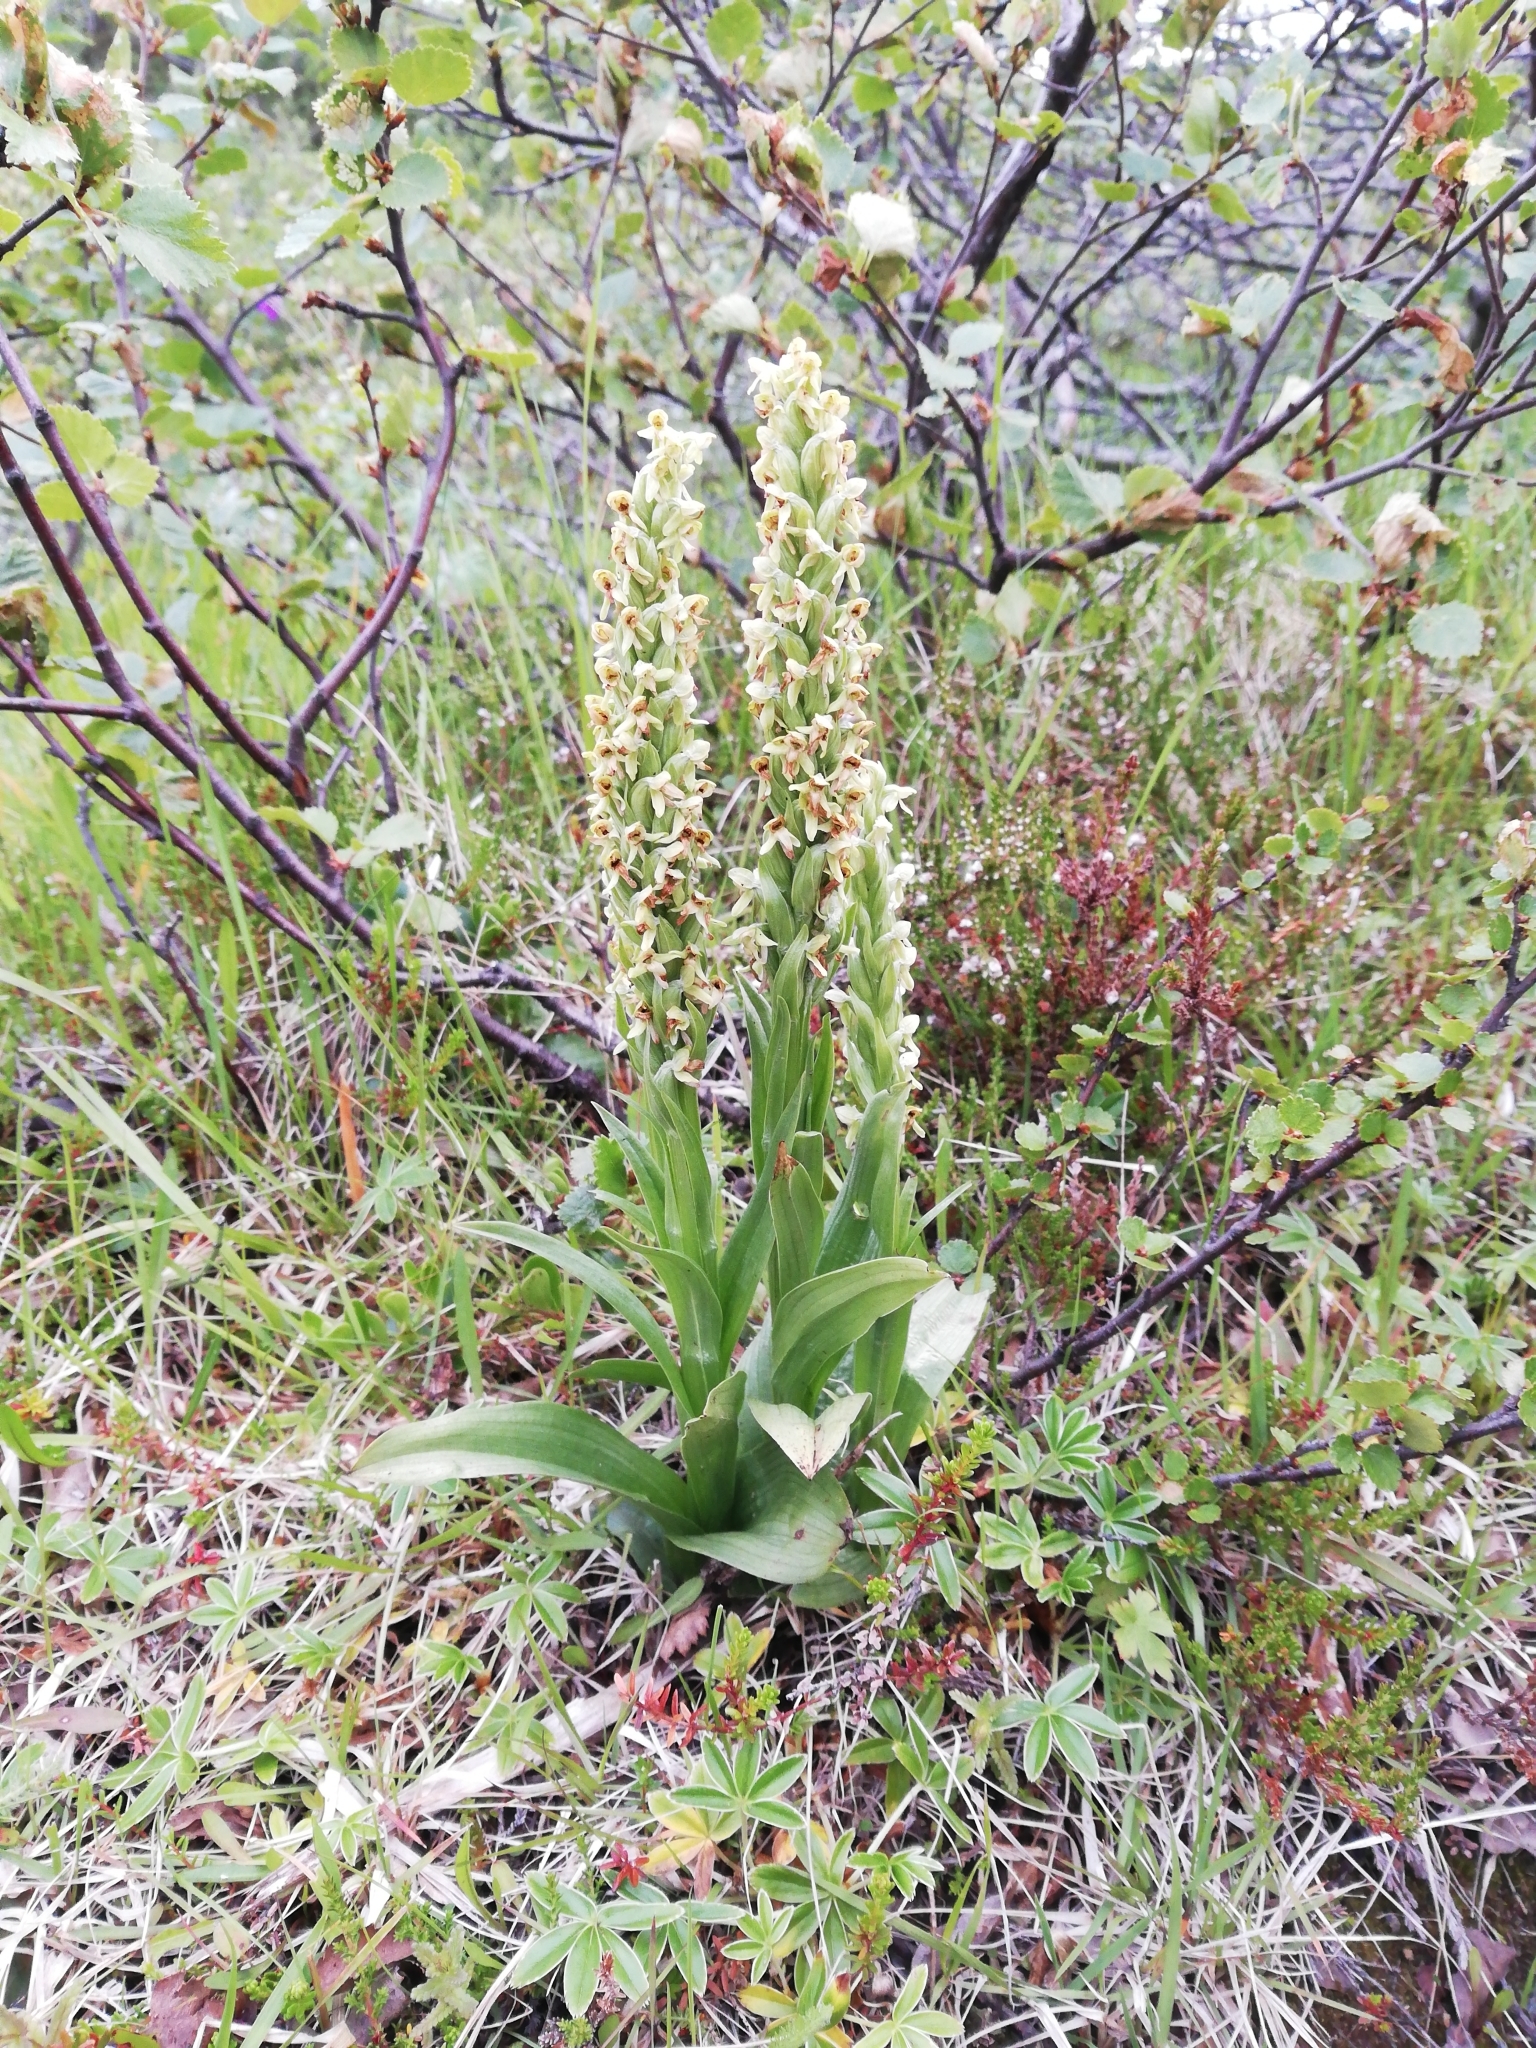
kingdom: Plantae
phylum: Tracheophyta
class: Liliopsida
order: Asparagales
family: Orchidaceae
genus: Platanthera
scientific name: Platanthera hyperborea
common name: Northern green orchid
